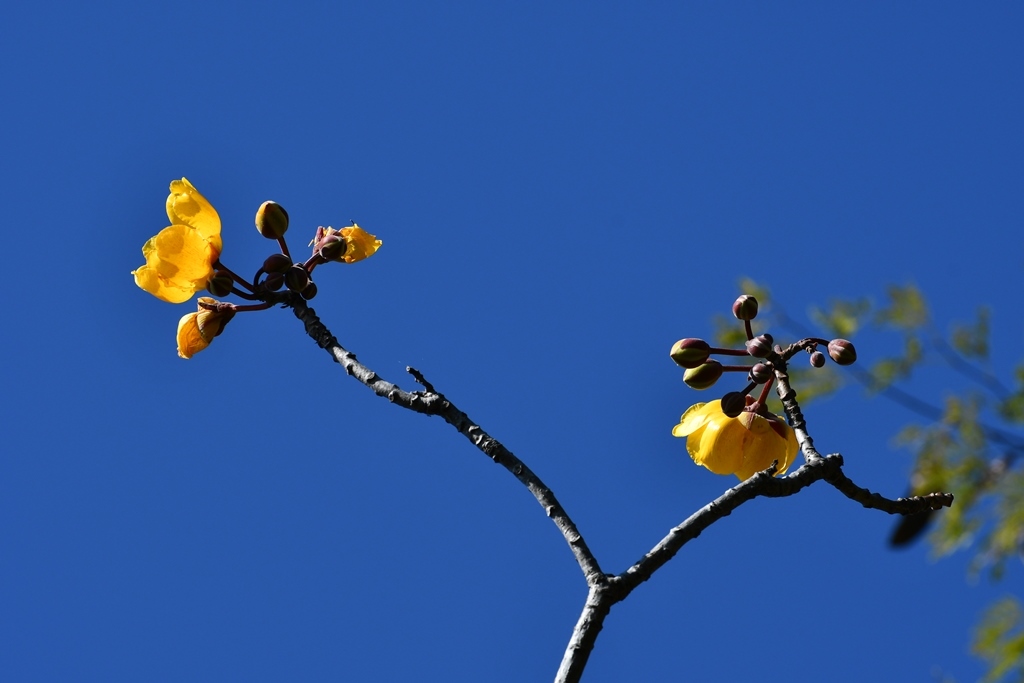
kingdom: Plantae
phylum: Tracheophyta
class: Magnoliopsida
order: Malvales
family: Cochlospermaceae
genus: Cochlospermum
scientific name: Cochlospermum vitifolium
